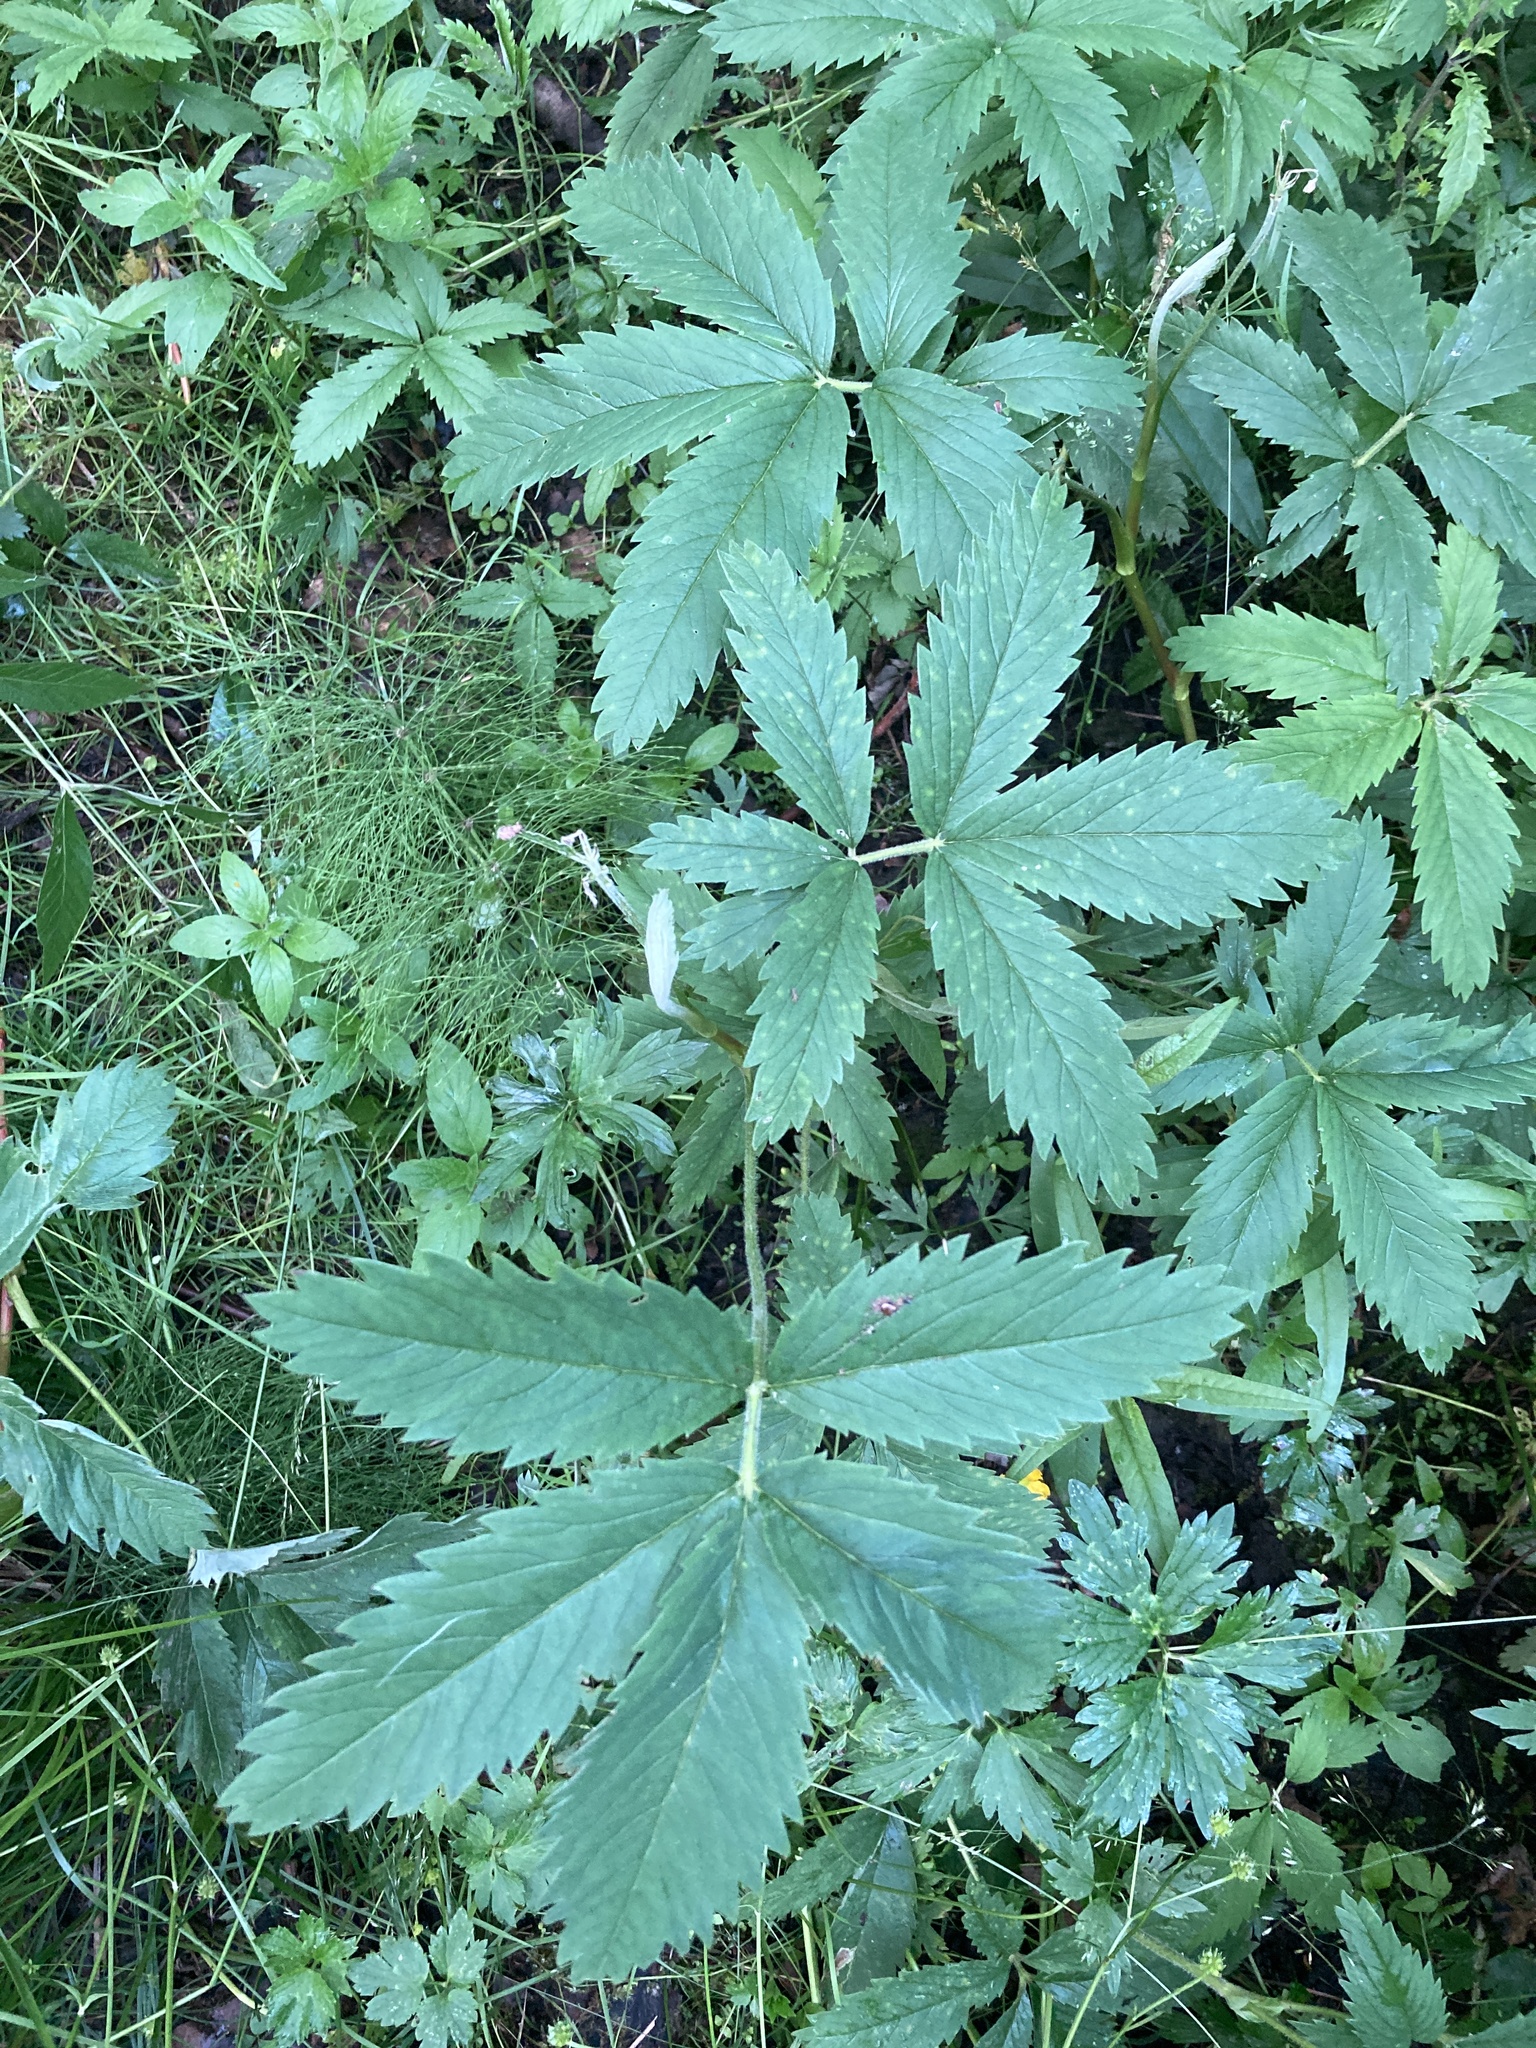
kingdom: Plantae
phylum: Tracheophyta
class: Magnoliopsida
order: Rosales
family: Rosaceae
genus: Comarum
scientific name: Comarum palustre
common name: Marsh cinquefoil
